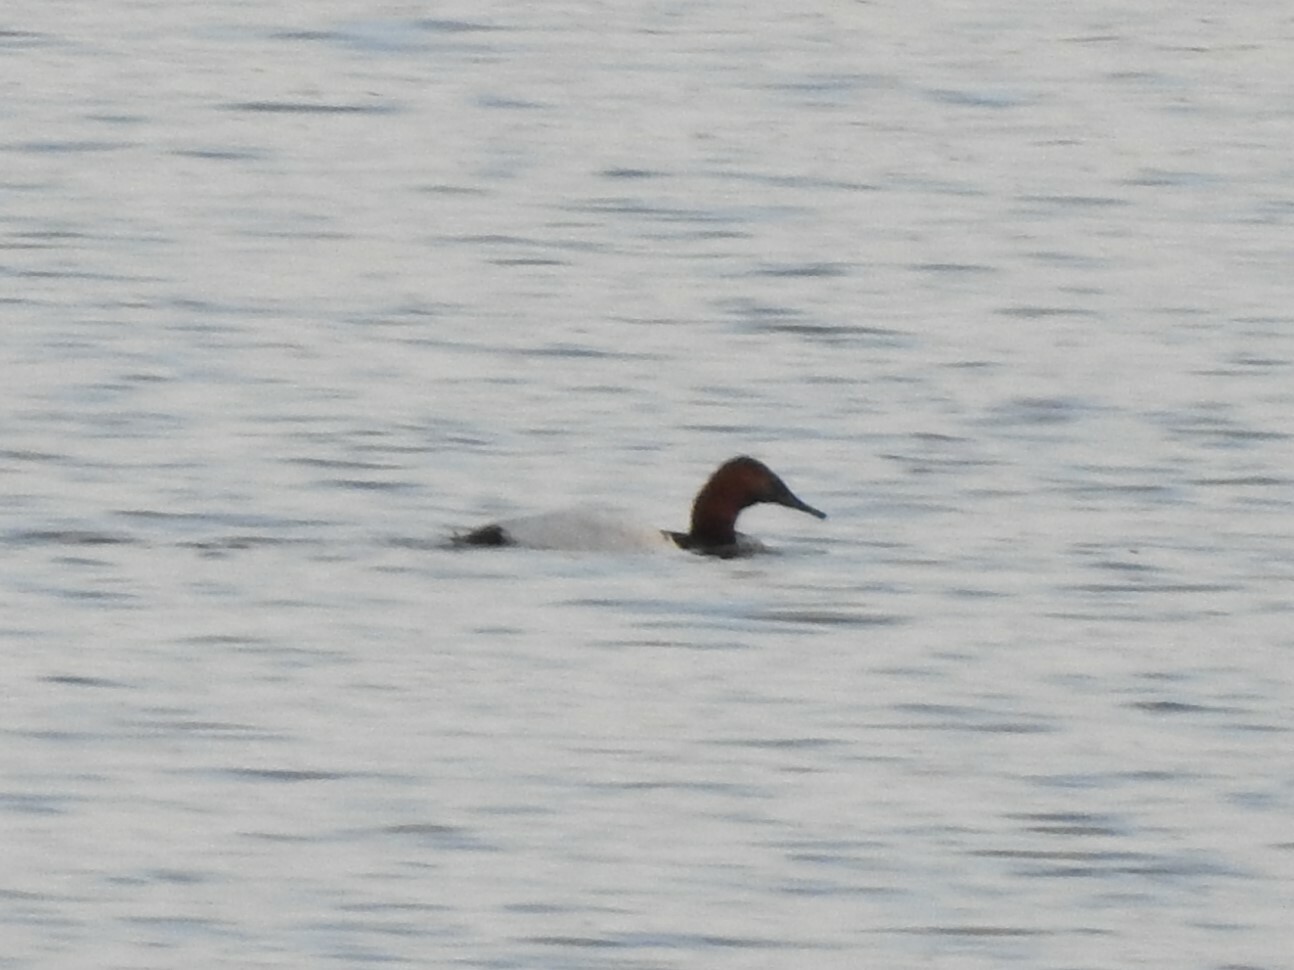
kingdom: Animalia
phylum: Chordata
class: Aves
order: Anseriformes
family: Anatidae
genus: Aythya
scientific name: Aythya valisineria
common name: Canvasback
